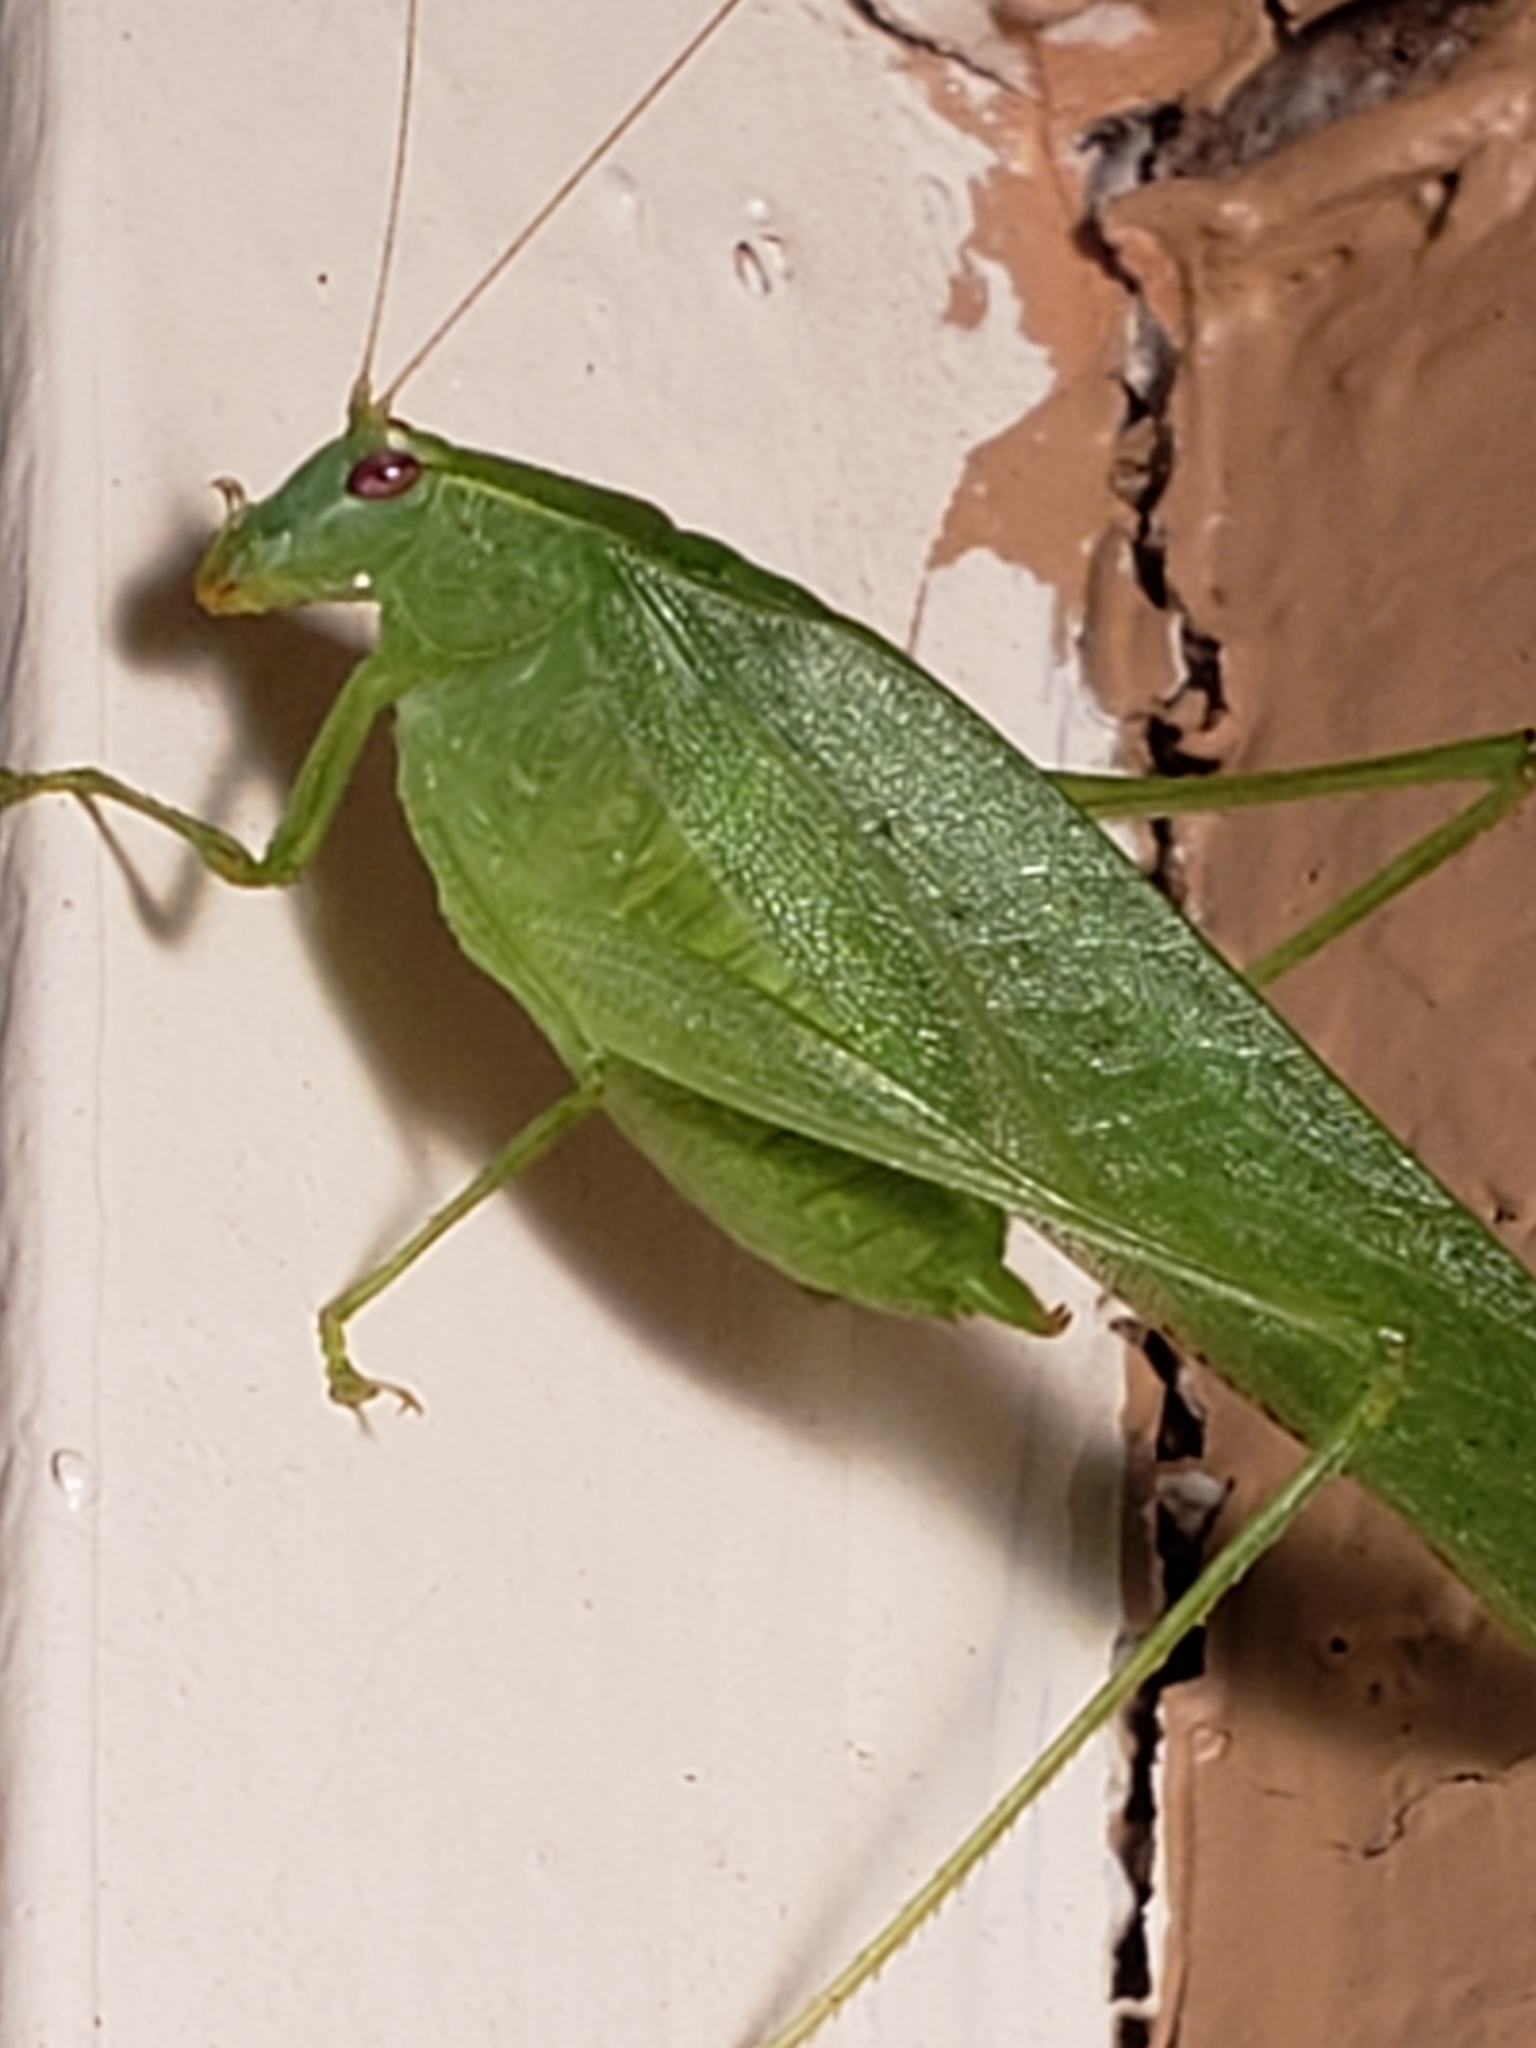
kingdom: Animalia
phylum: Arthropoda
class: Insecta
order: Orthoptera
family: Tettigoniidae
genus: Montezumina
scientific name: Montezumina modesta
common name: Modest katydid
